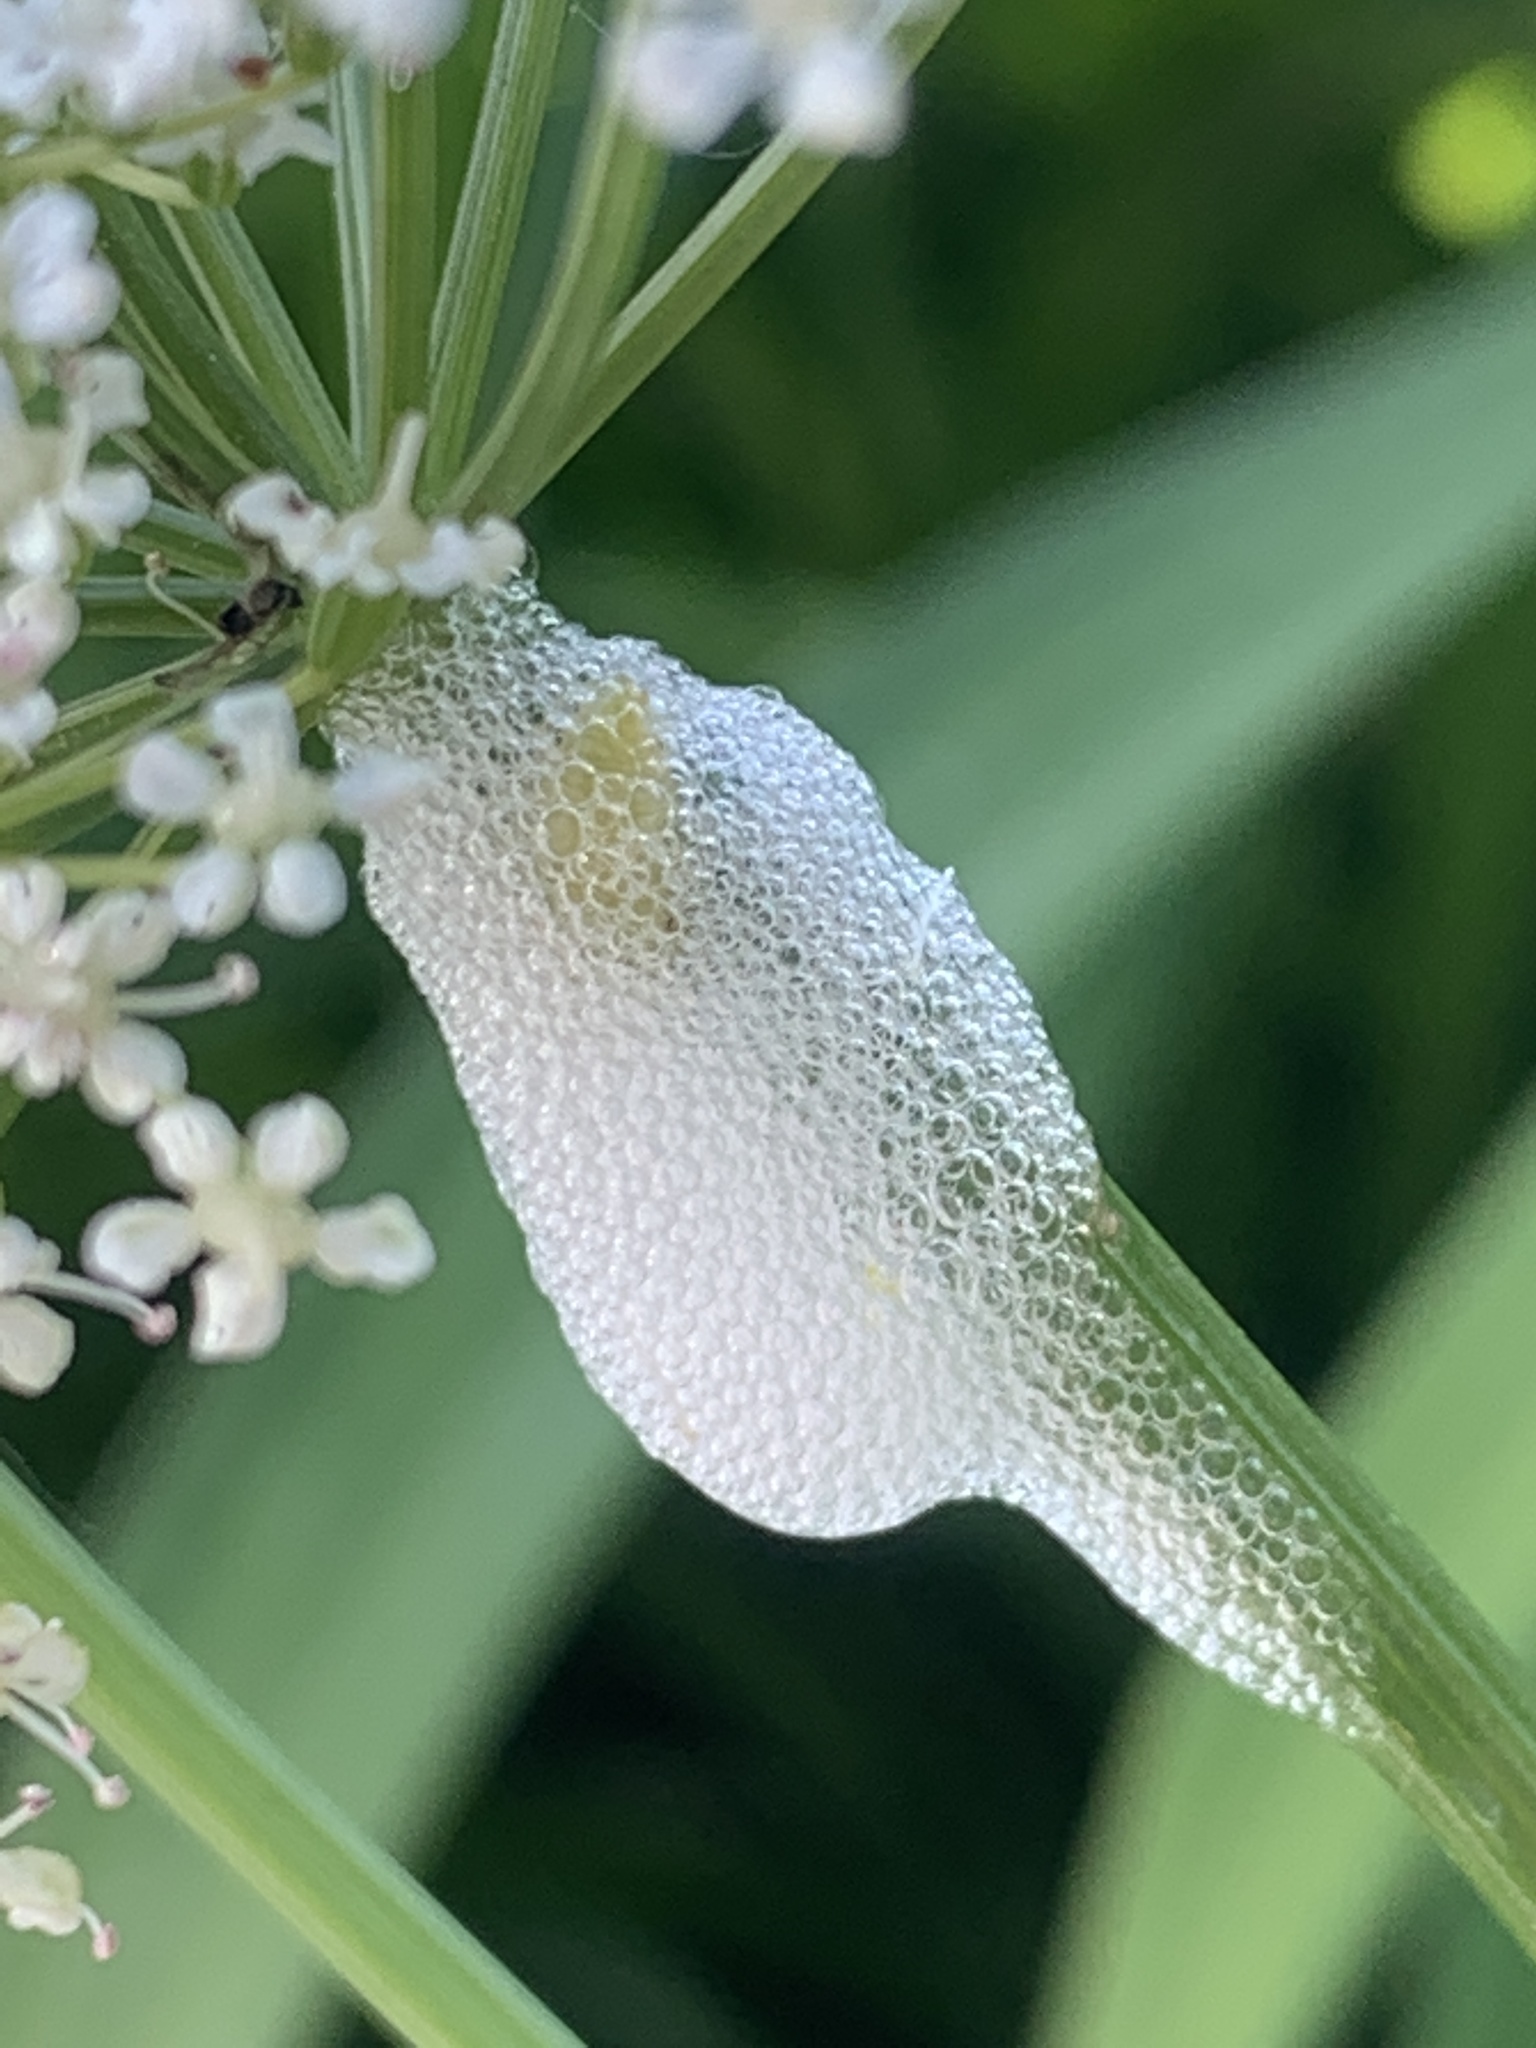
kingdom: Animalia
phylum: Arthropoda
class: Insecta
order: Hemiptera
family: Aphrophoridae
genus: Philaenus
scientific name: Philaenus spumarius
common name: Meadow spittlebug
